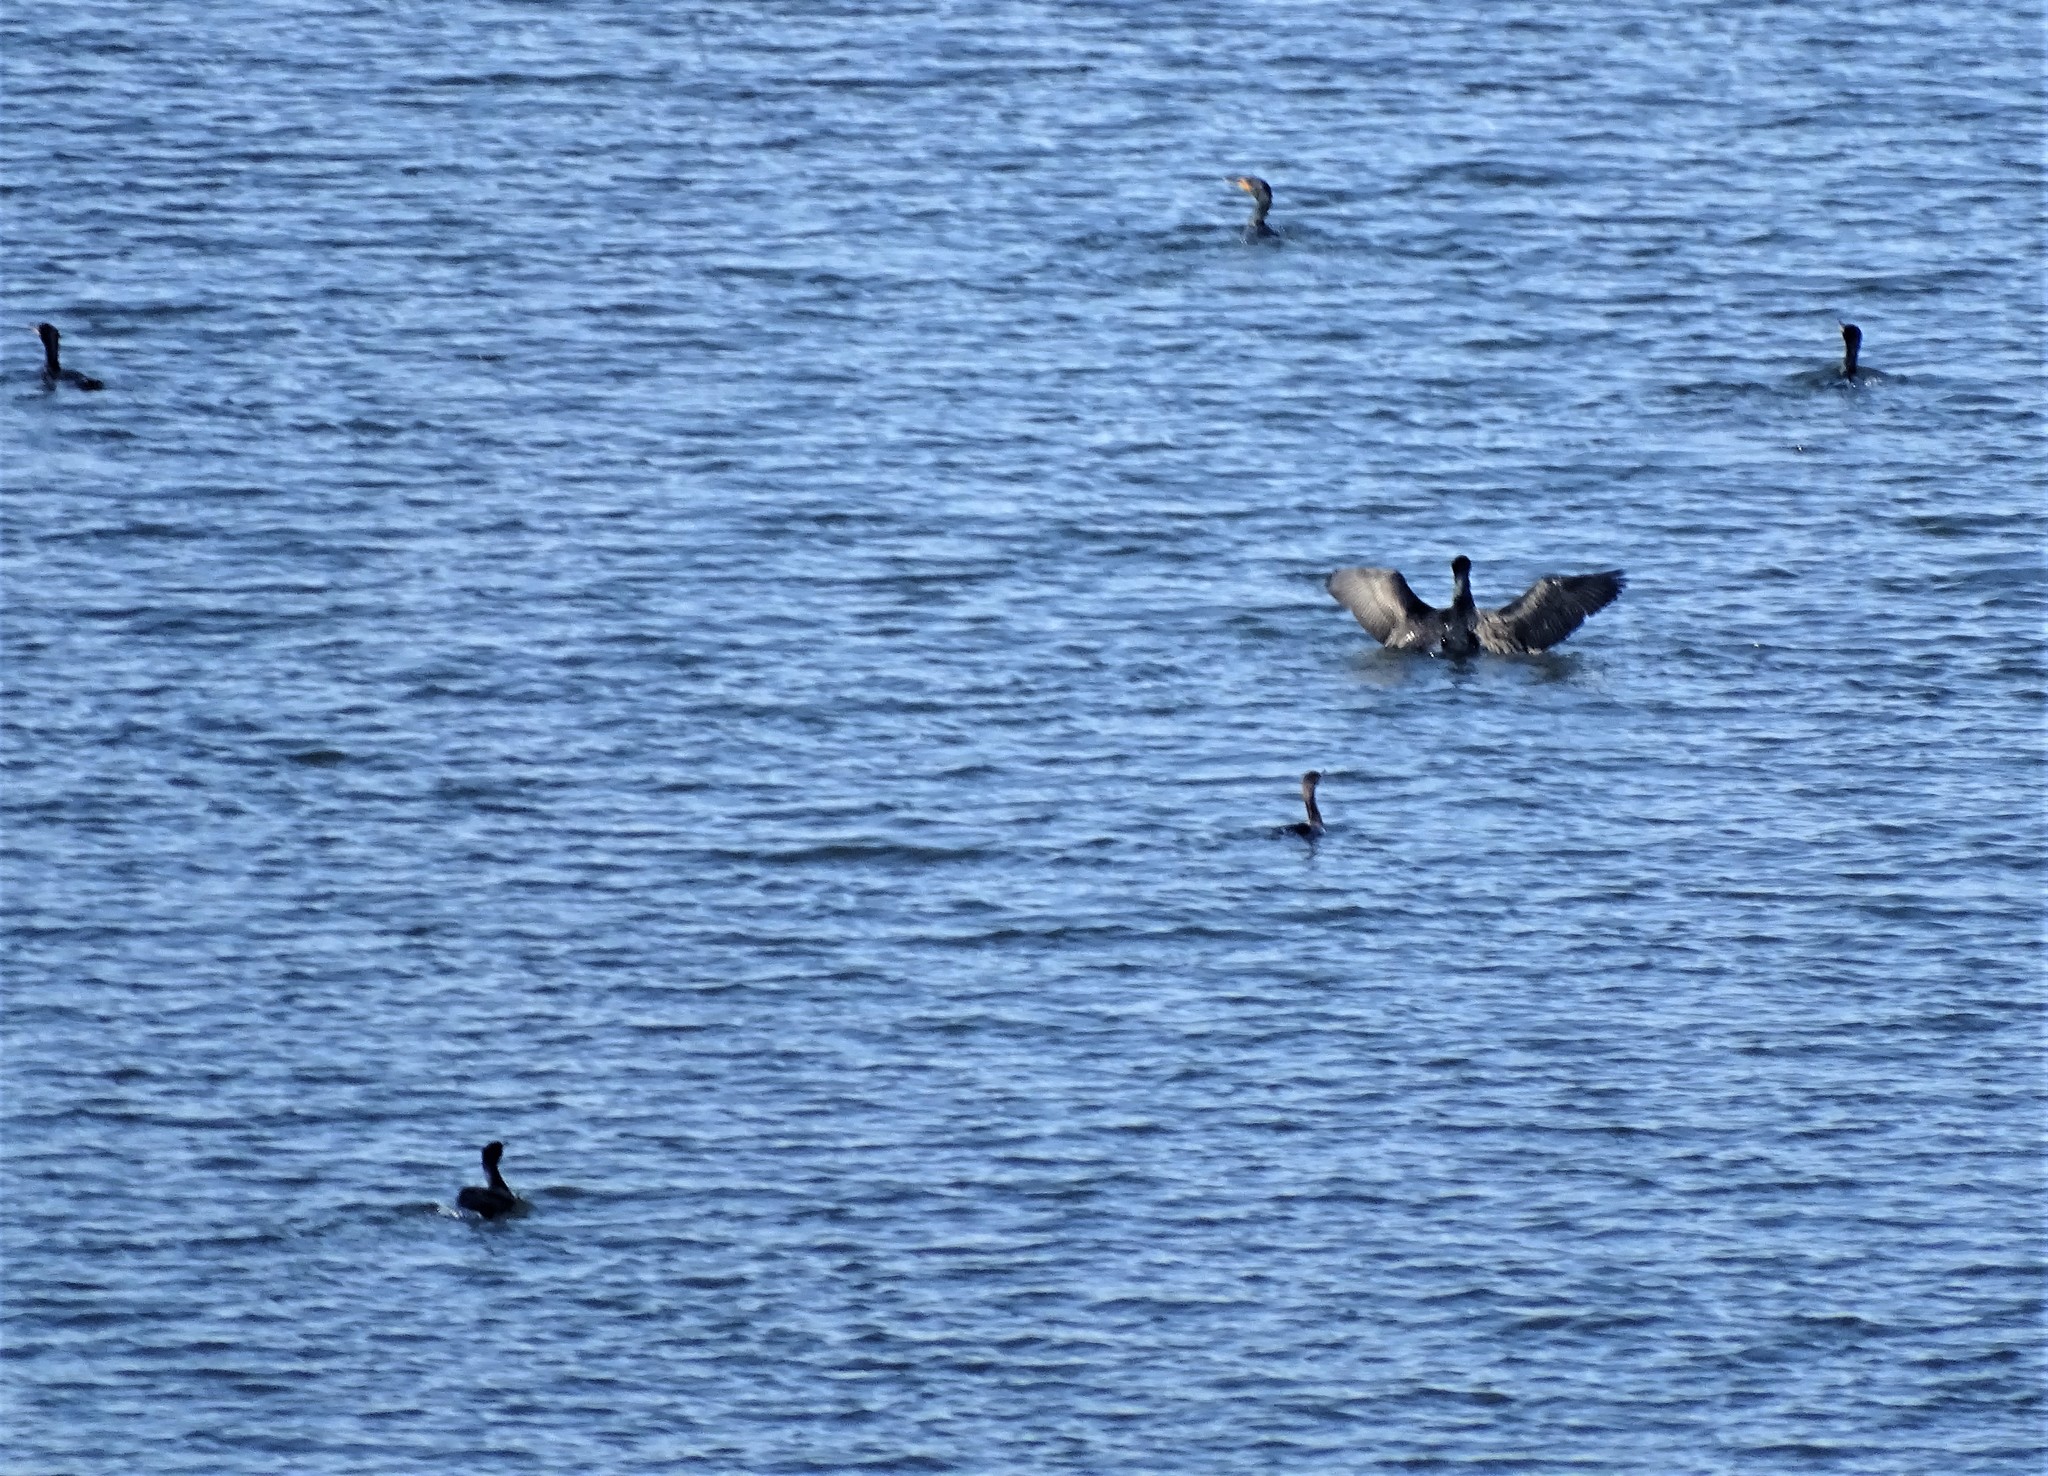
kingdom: Animalia
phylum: Chordata
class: Aves
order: Suliformes
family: Phalacrocoracidae
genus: Phalacrocorax
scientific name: Phalacrocorax auritus
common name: Double-crested cormorant
